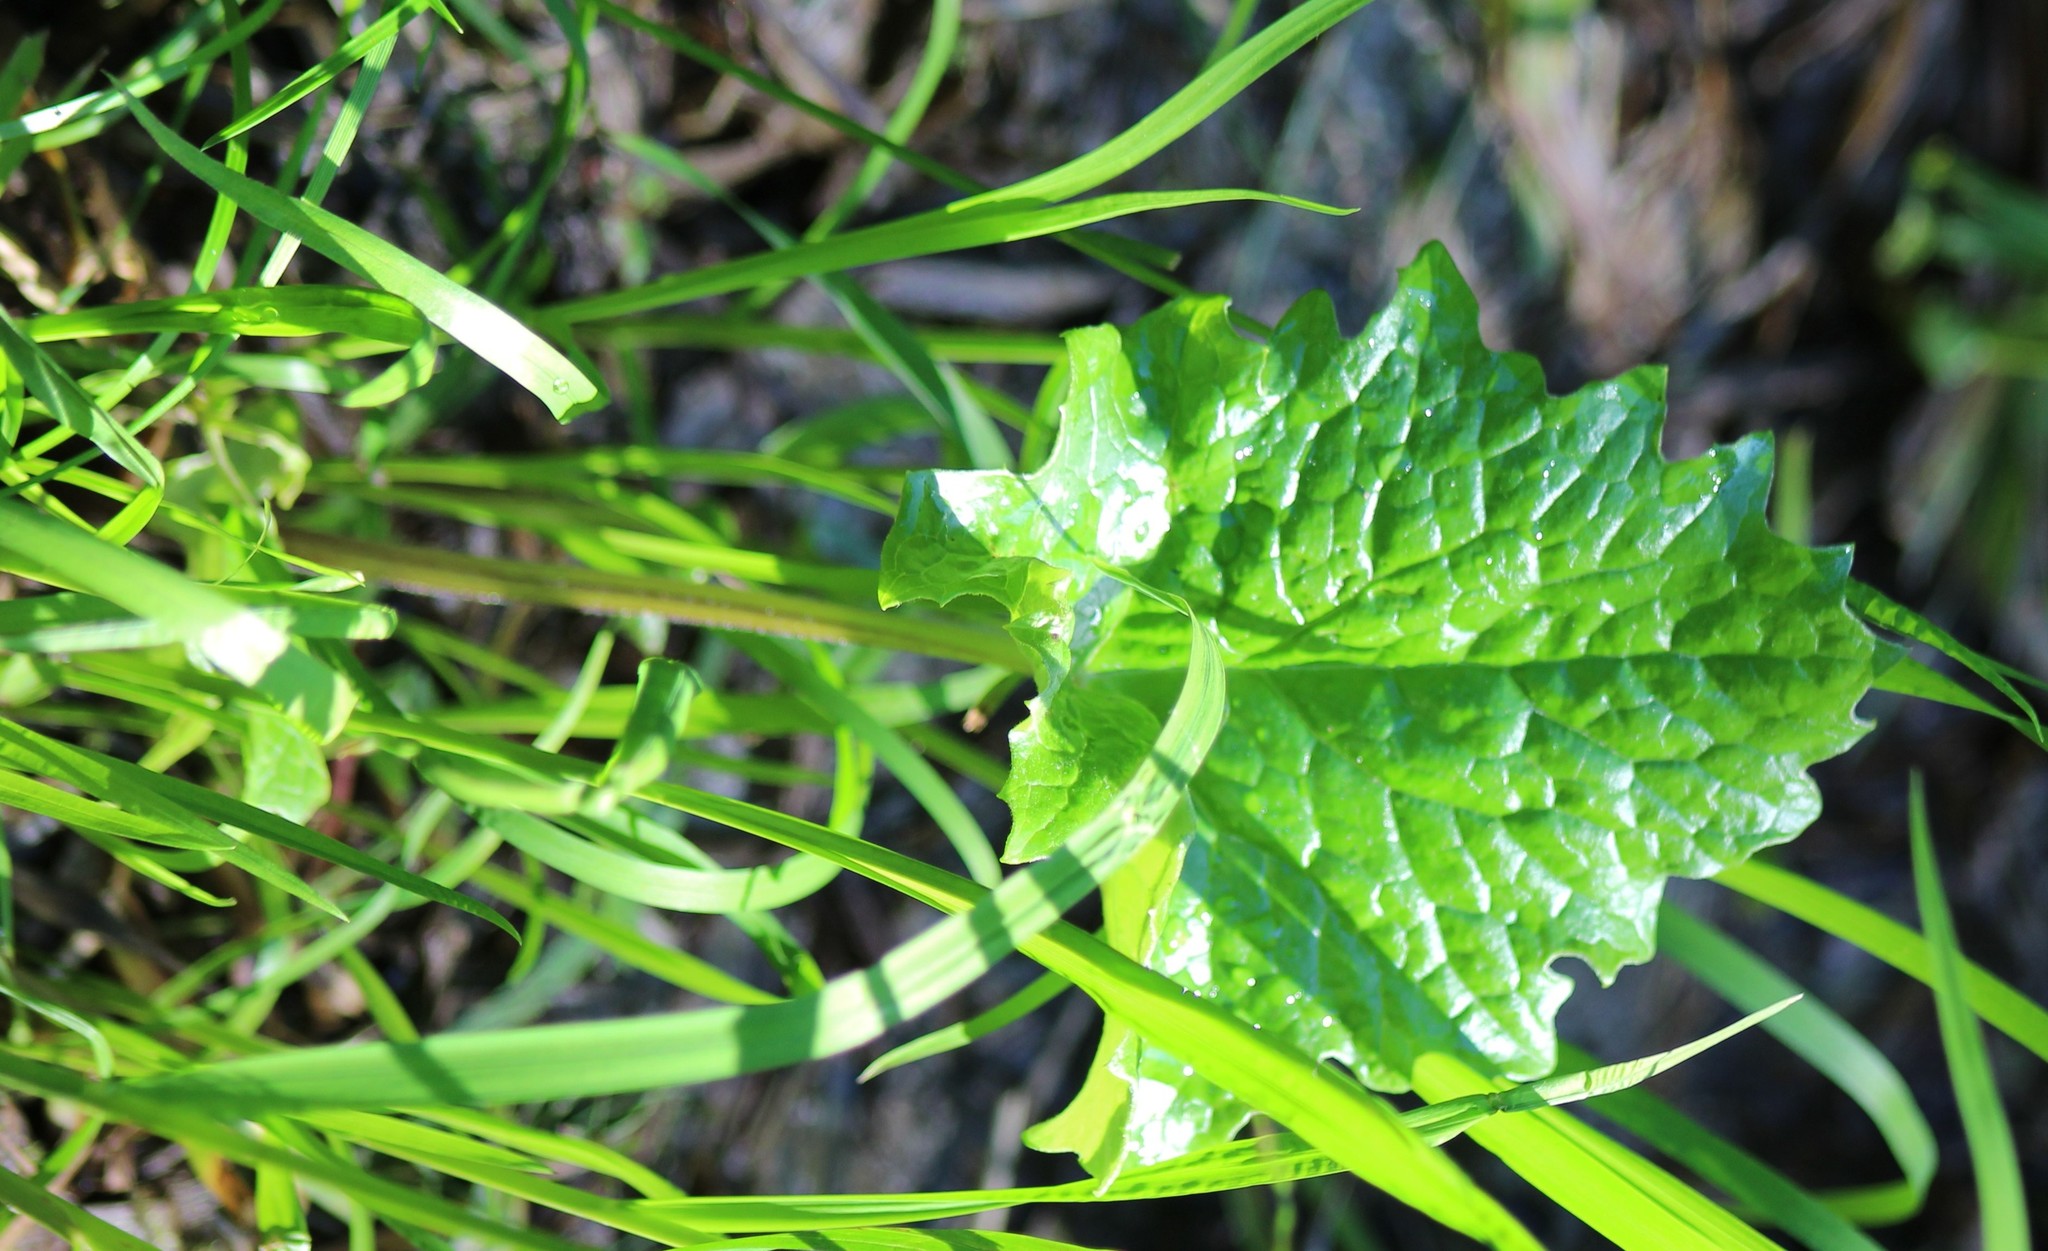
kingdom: Plantae
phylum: Tracheophyta
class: Magnoliopsida
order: Asterales
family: Asteraceae
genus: Petasites
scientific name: Petasites frigidus
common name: Arctic butterbur
